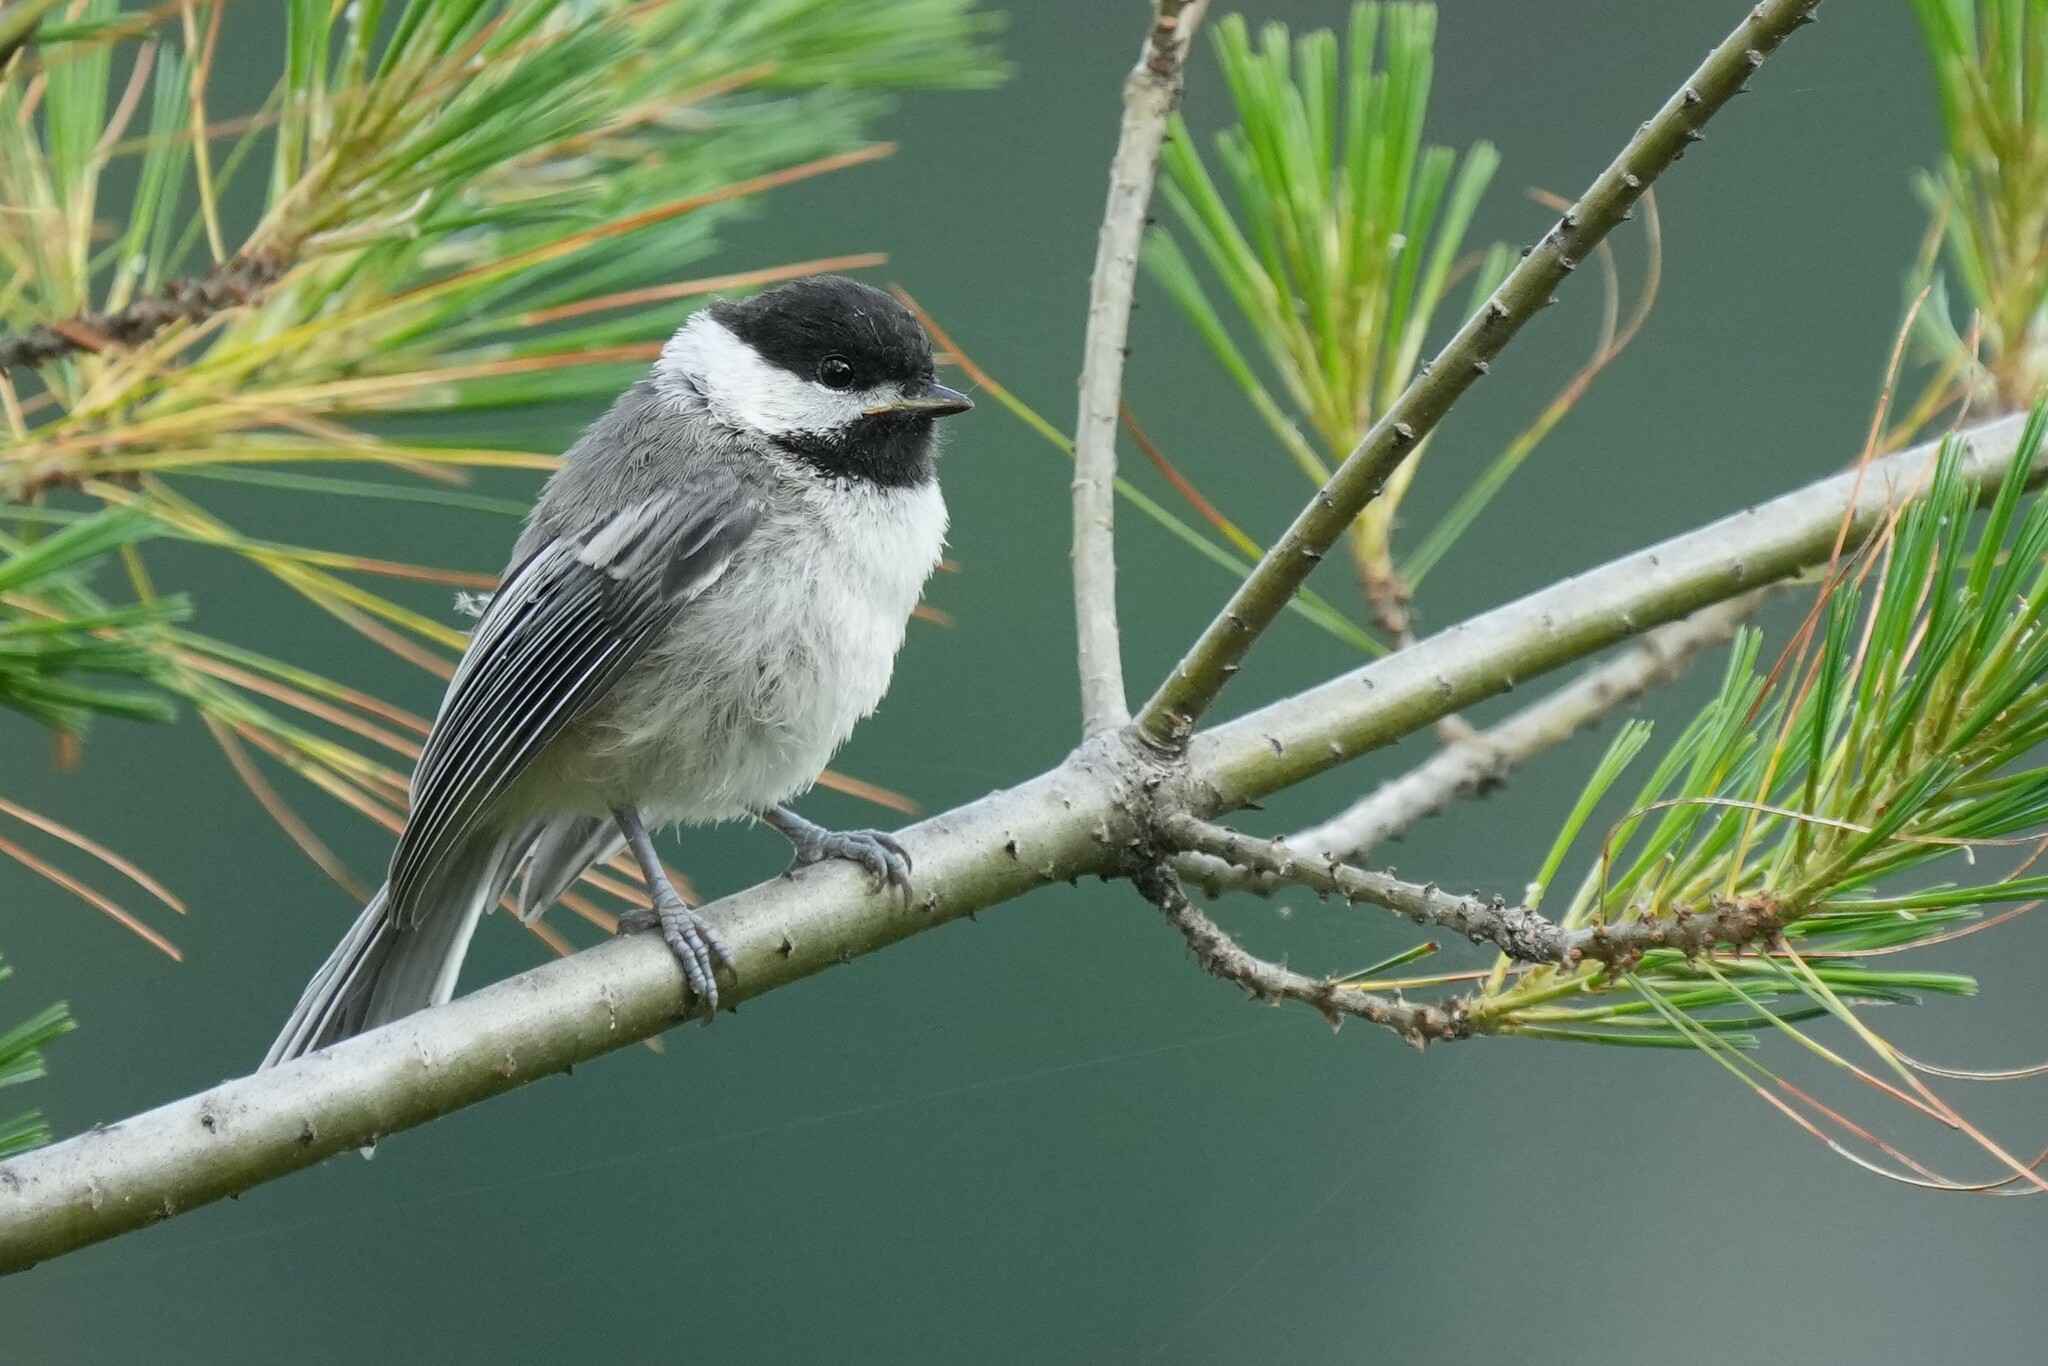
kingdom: Animalia
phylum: Chordata
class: Aves
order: Passeriformes
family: Paridae
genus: Poecile
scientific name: Poecile atricapillus
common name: Black-capped chickadee
